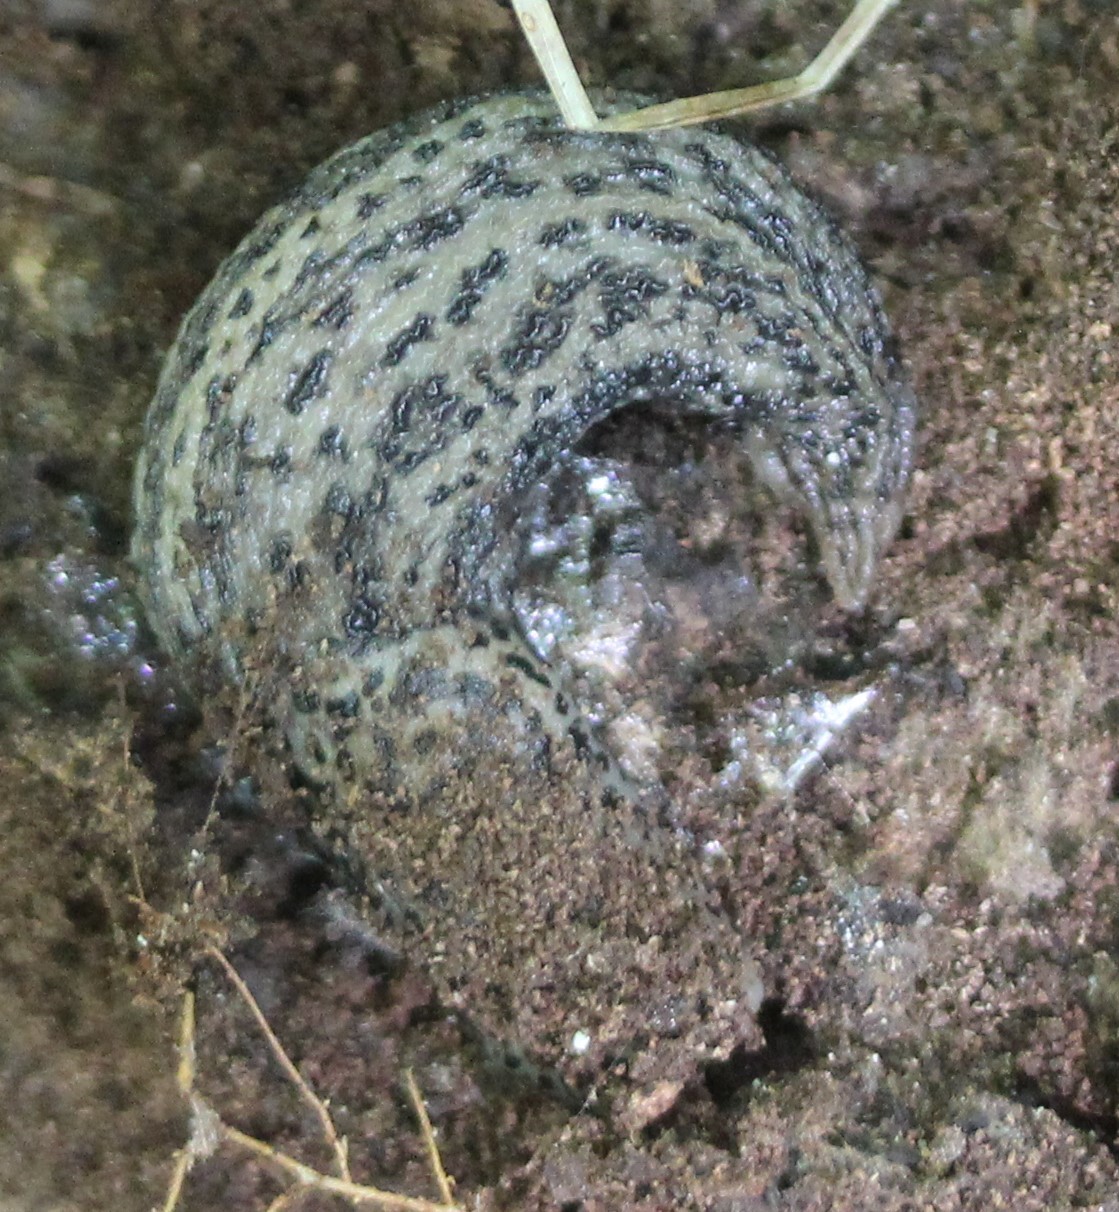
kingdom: Animalia
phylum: Mollusca
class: Gastropoda
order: Stylommatophora
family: Limacidae
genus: Limax
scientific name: Limax maximus
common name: Great grey slug
